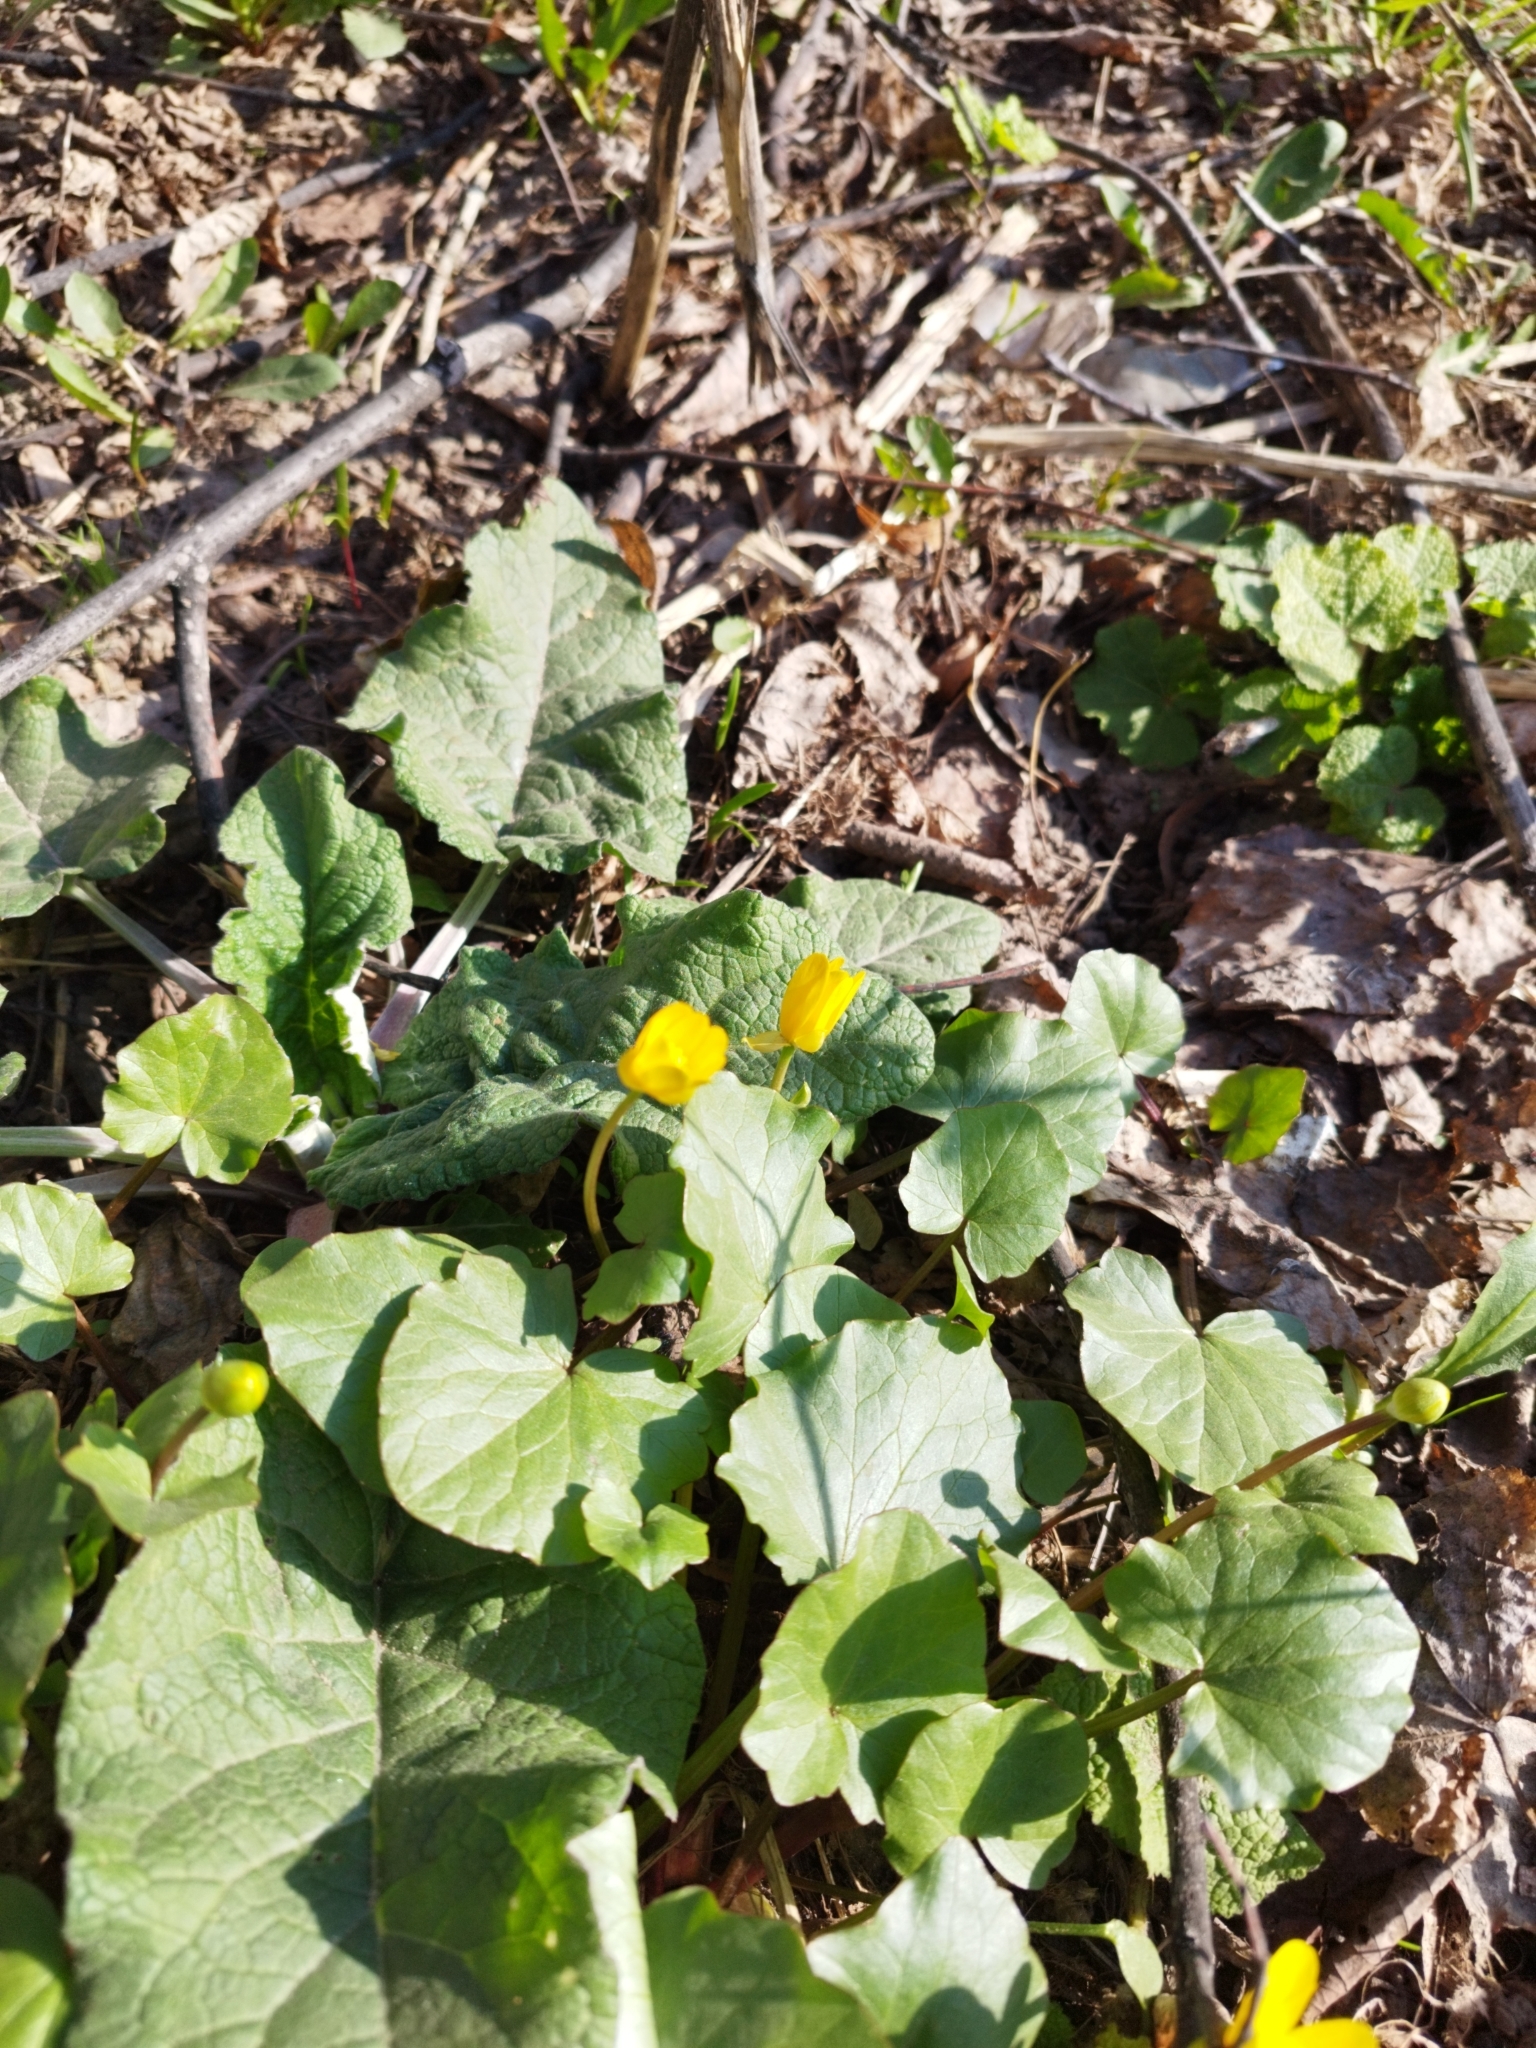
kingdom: Plantae
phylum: Tracheophyta
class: Magnoliopsida
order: Ranunculales
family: Ranunculaceae
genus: Ficaria
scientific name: Ficaria verna
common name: Lesser celandine
